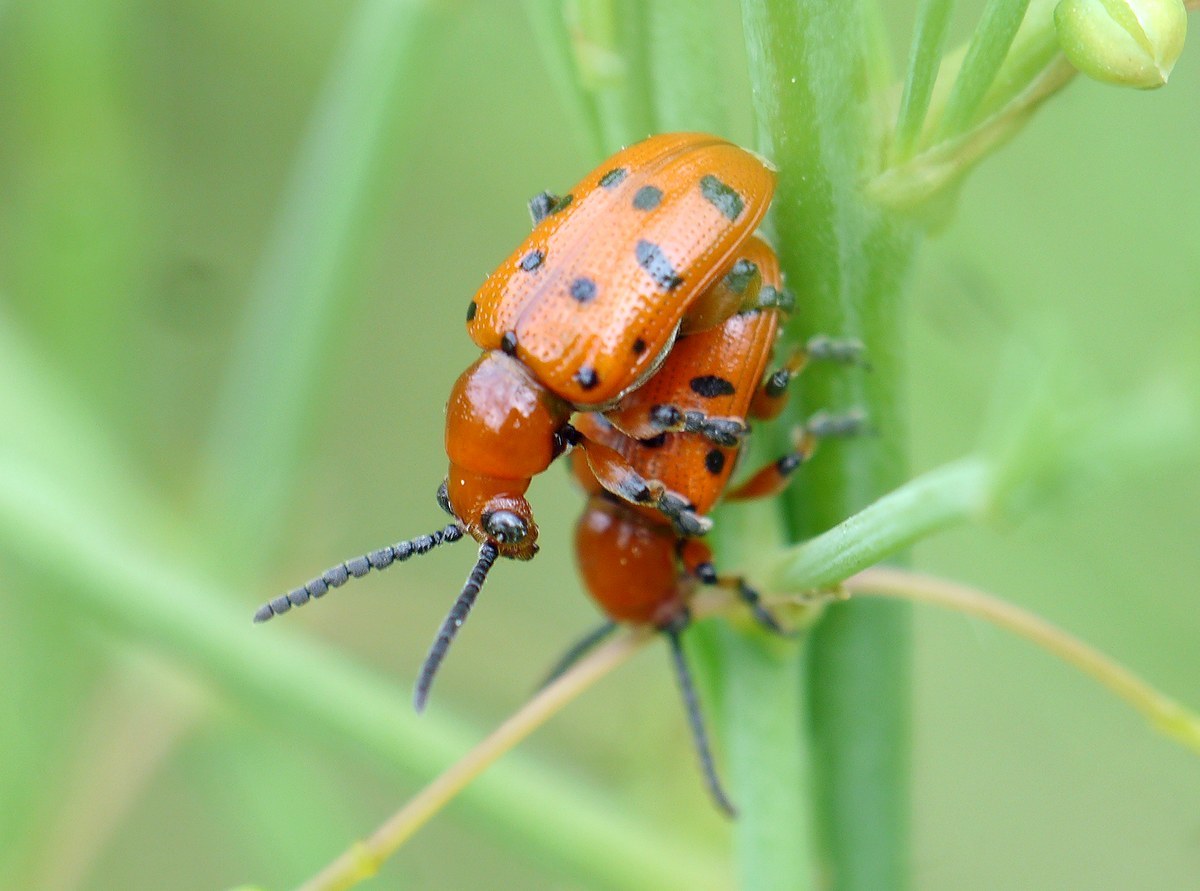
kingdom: Animalia
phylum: Arthropoda
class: Insecta
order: Coleoptera
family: Chrysomelidae
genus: Crioceris
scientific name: Crioceris duodecimpunctata
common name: Twelve-spotted asparagus beetle
